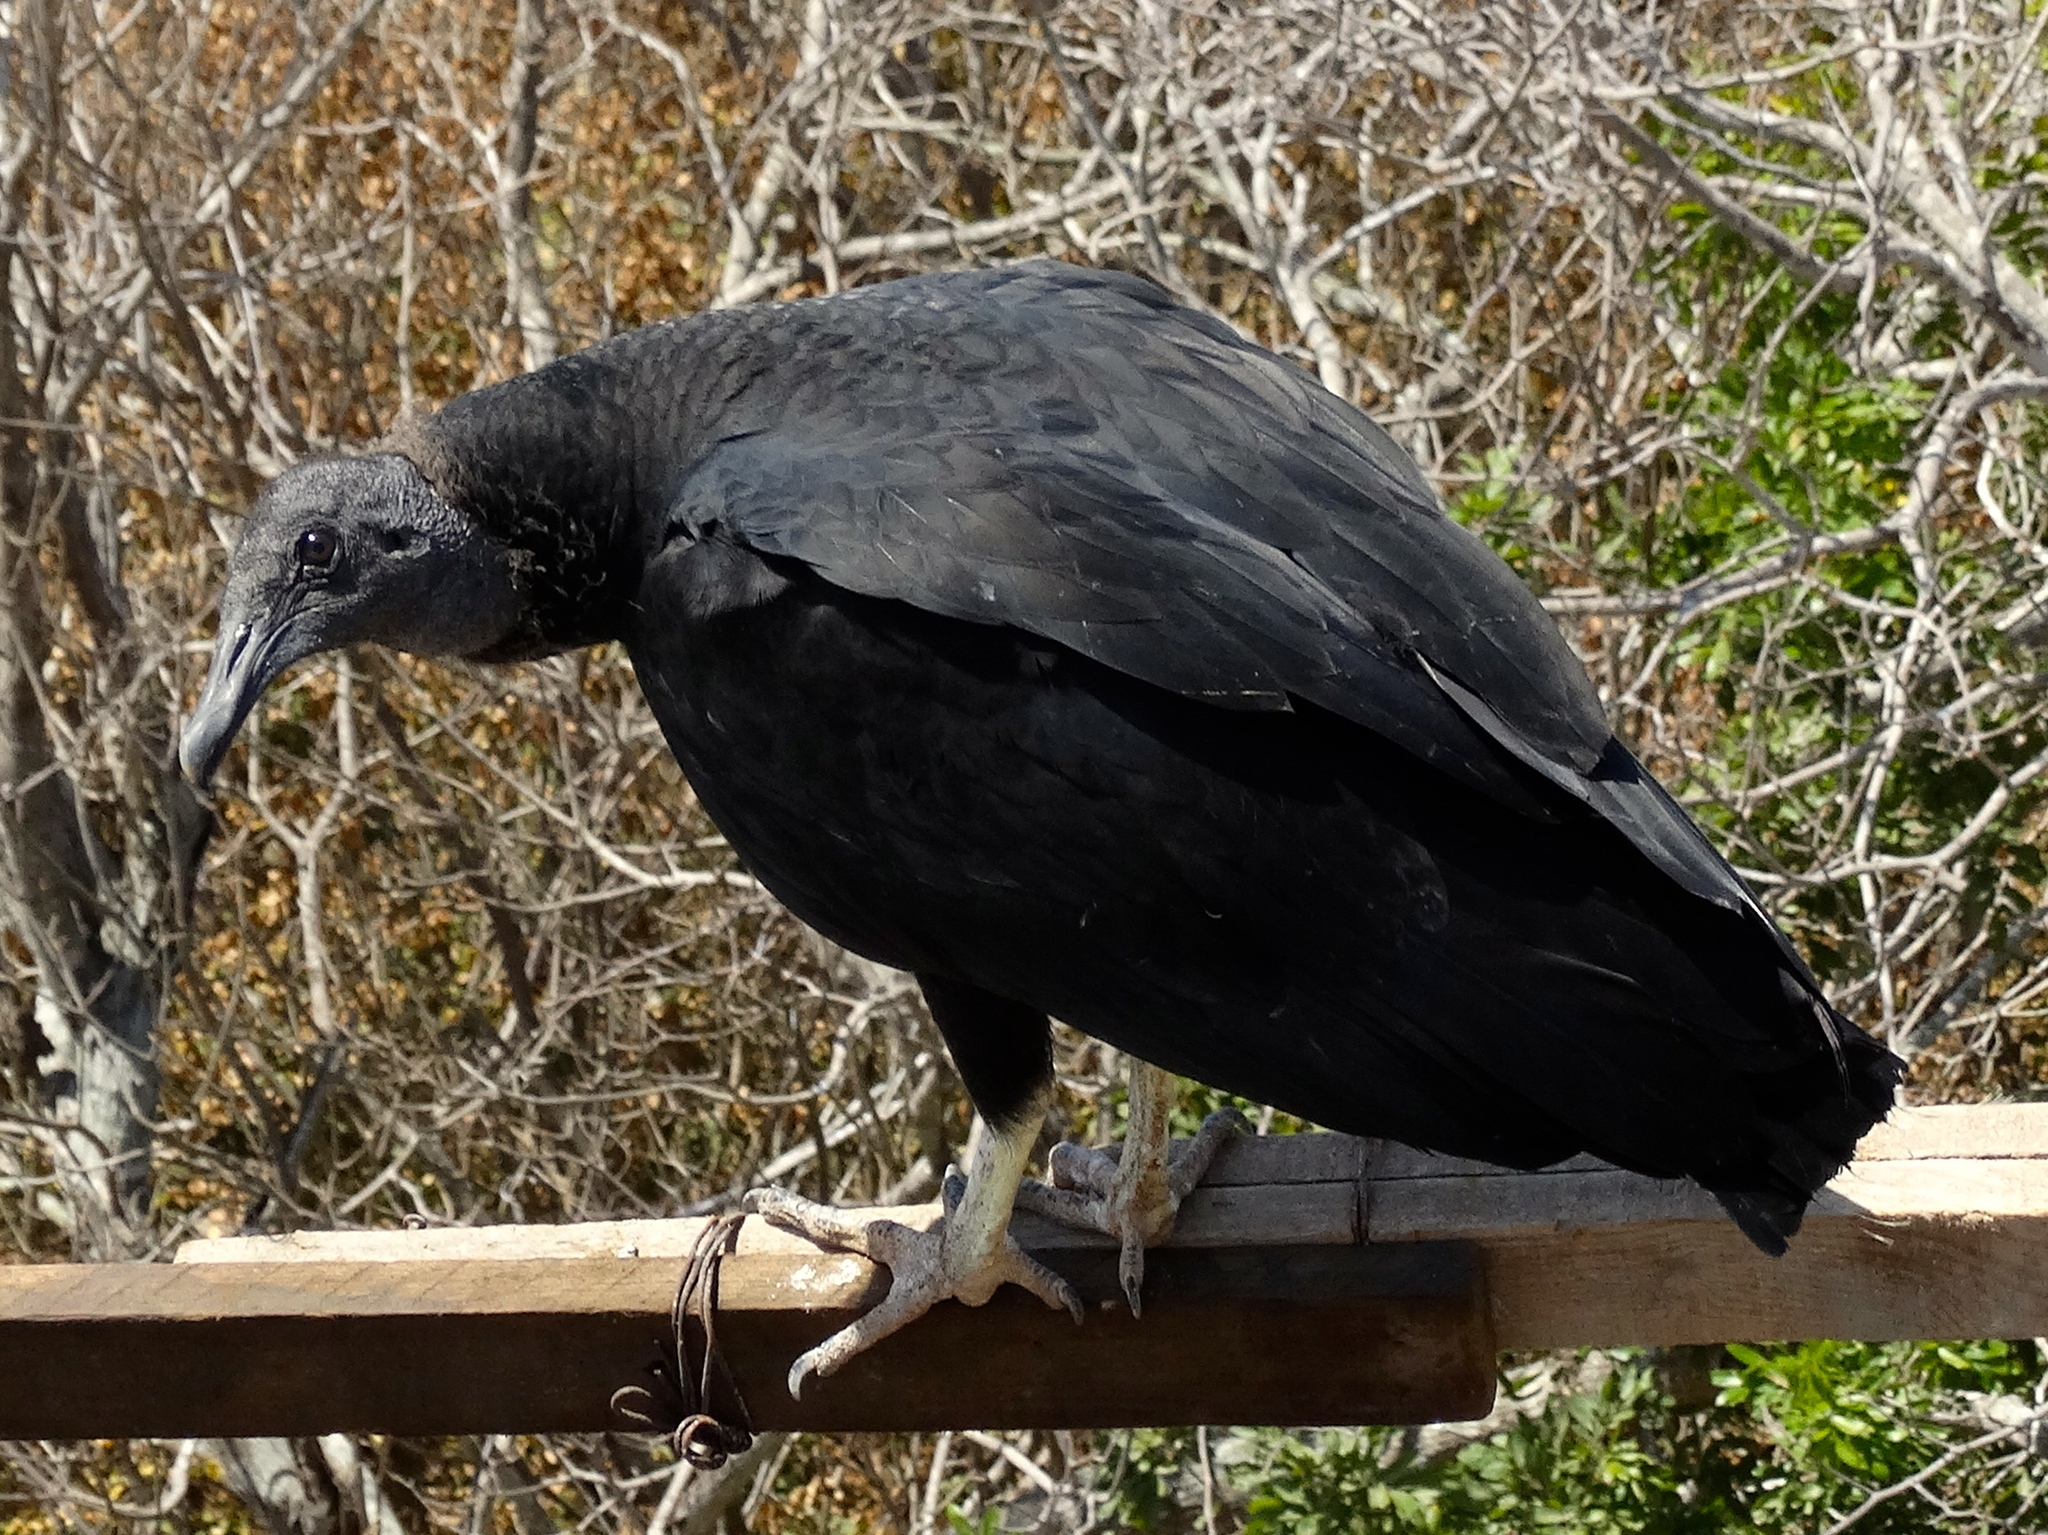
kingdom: Animalia
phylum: Chordata
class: Aves
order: Accipitriformes
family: Cathartidae
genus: Coragyps
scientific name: Coragyps atratus
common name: Black vulture
